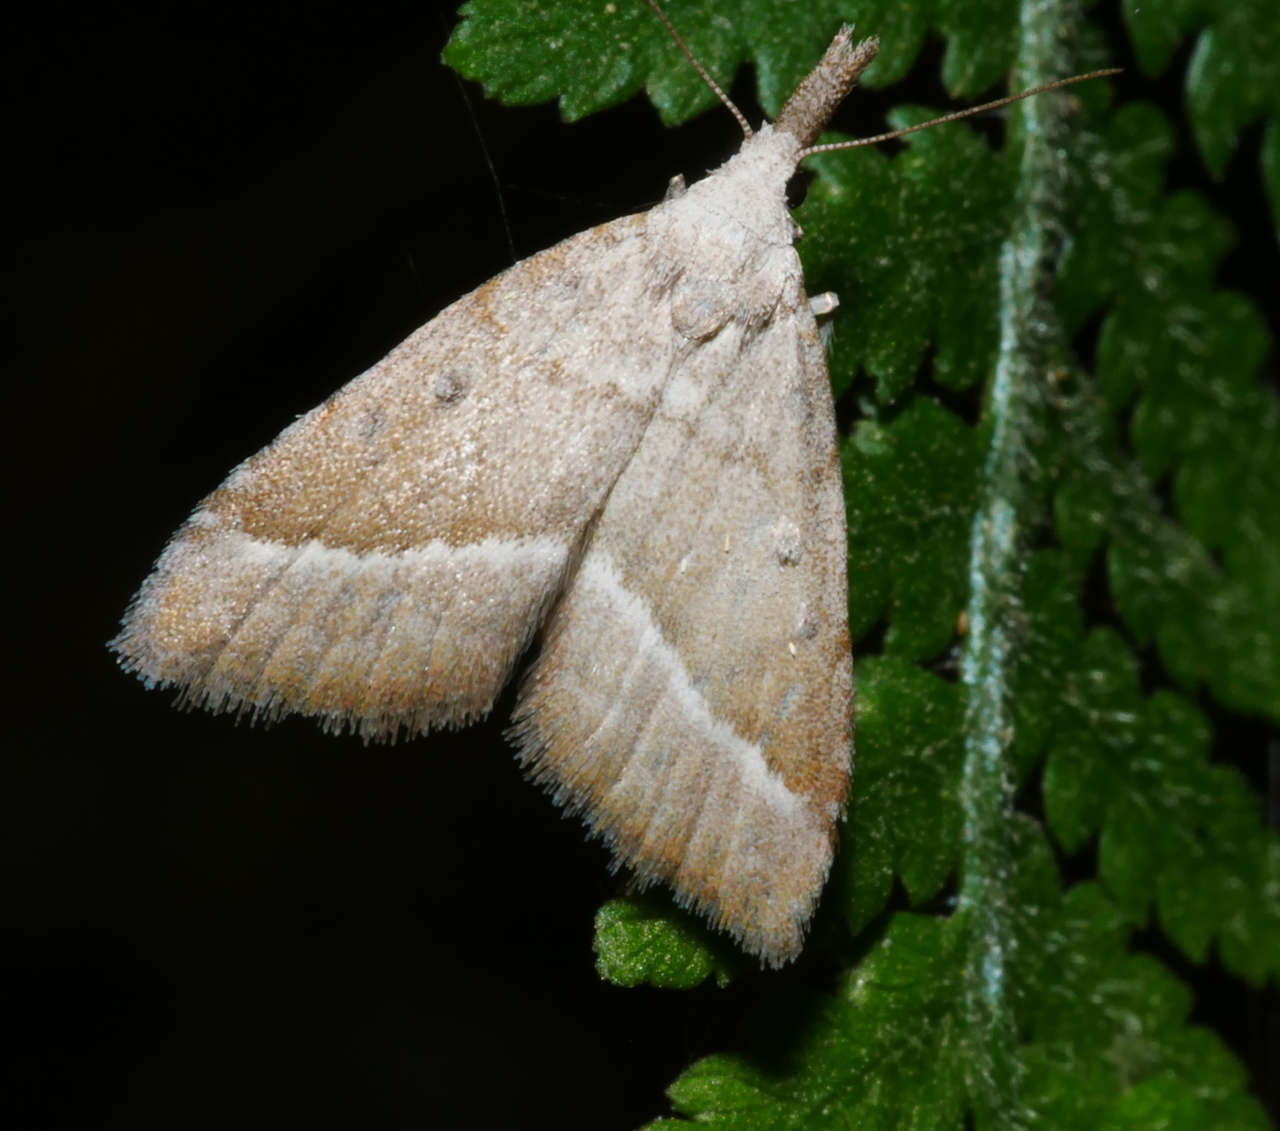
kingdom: Animalia
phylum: Arthropoda
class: Insecta
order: Lepidoptera
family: Nolidae
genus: Nola
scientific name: Nola tholera
